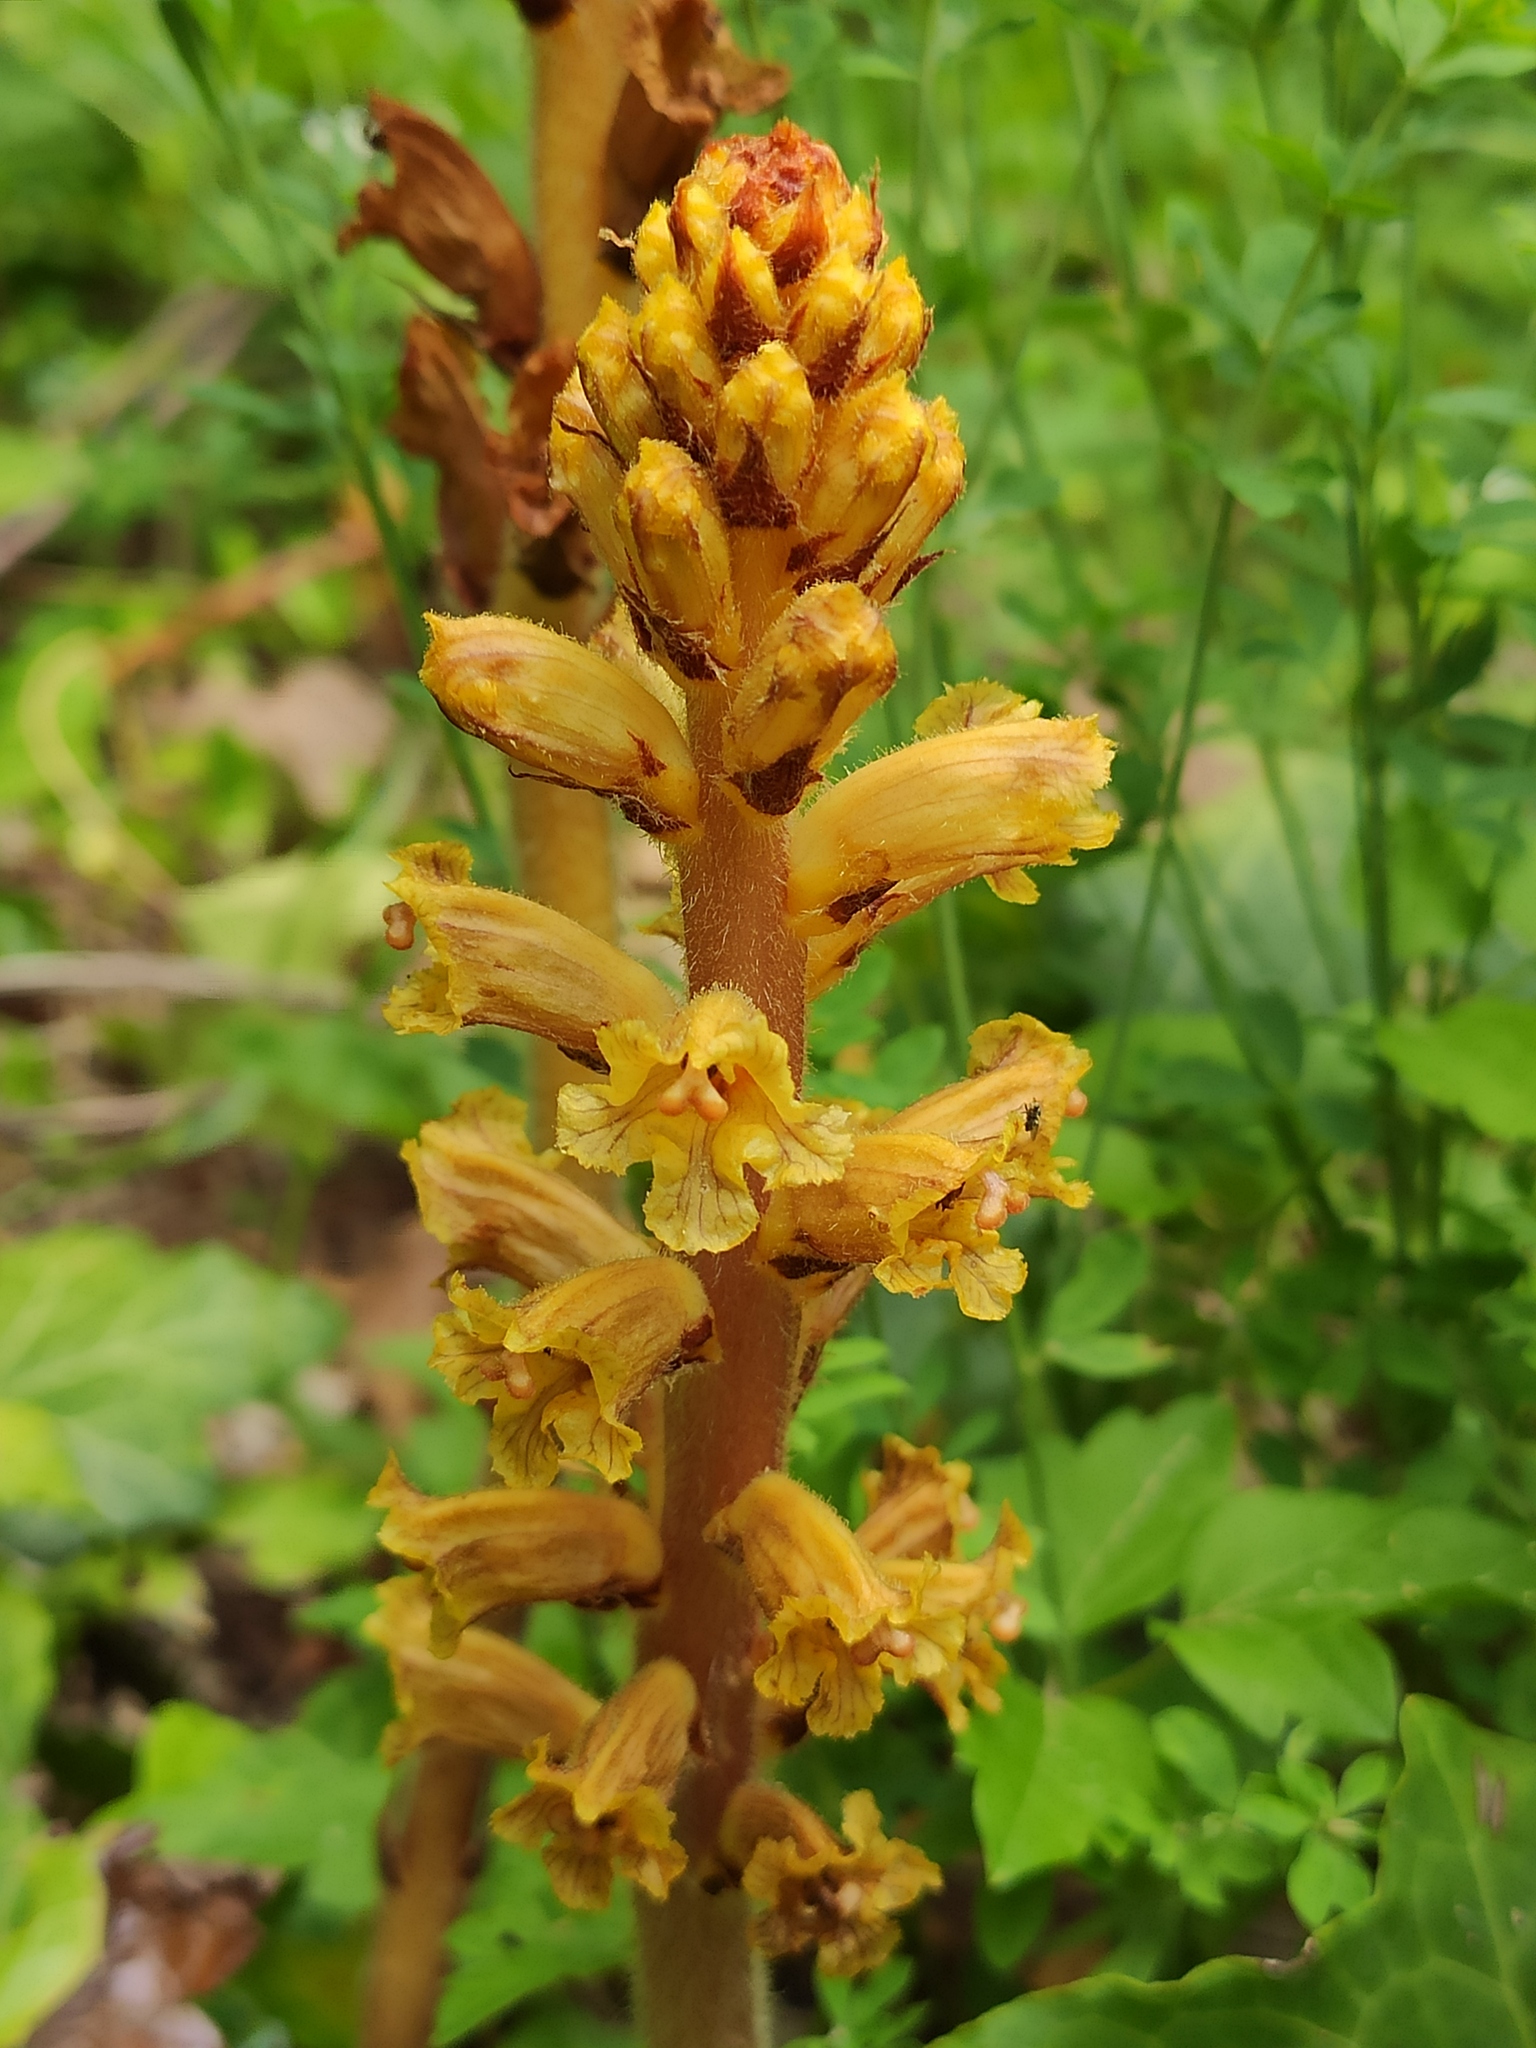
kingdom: Plantae
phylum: Tracheophyta
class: Magnoliopsida
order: Lamiales
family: Orobanchaceae
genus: Orobanche
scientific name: Orobanche laxissima
